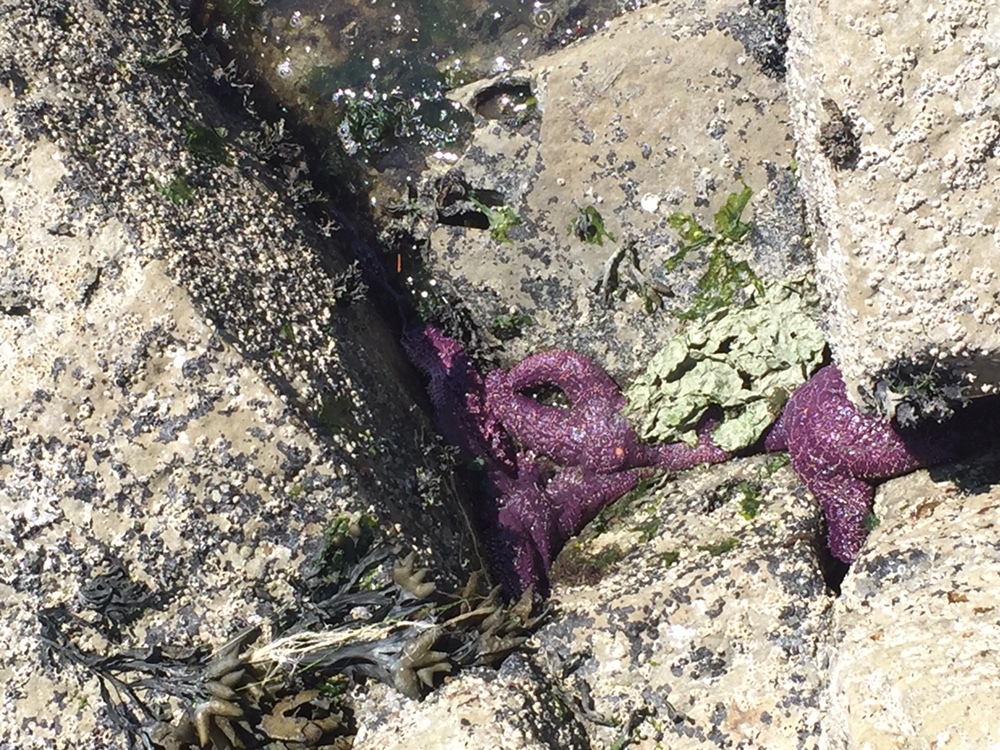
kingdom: Animalia
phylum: Echinodermata
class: Asteroidea
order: Forcipulatida
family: Asteriidae
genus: Pisaster
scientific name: Pisaster ochraceus
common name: Ochre stars
